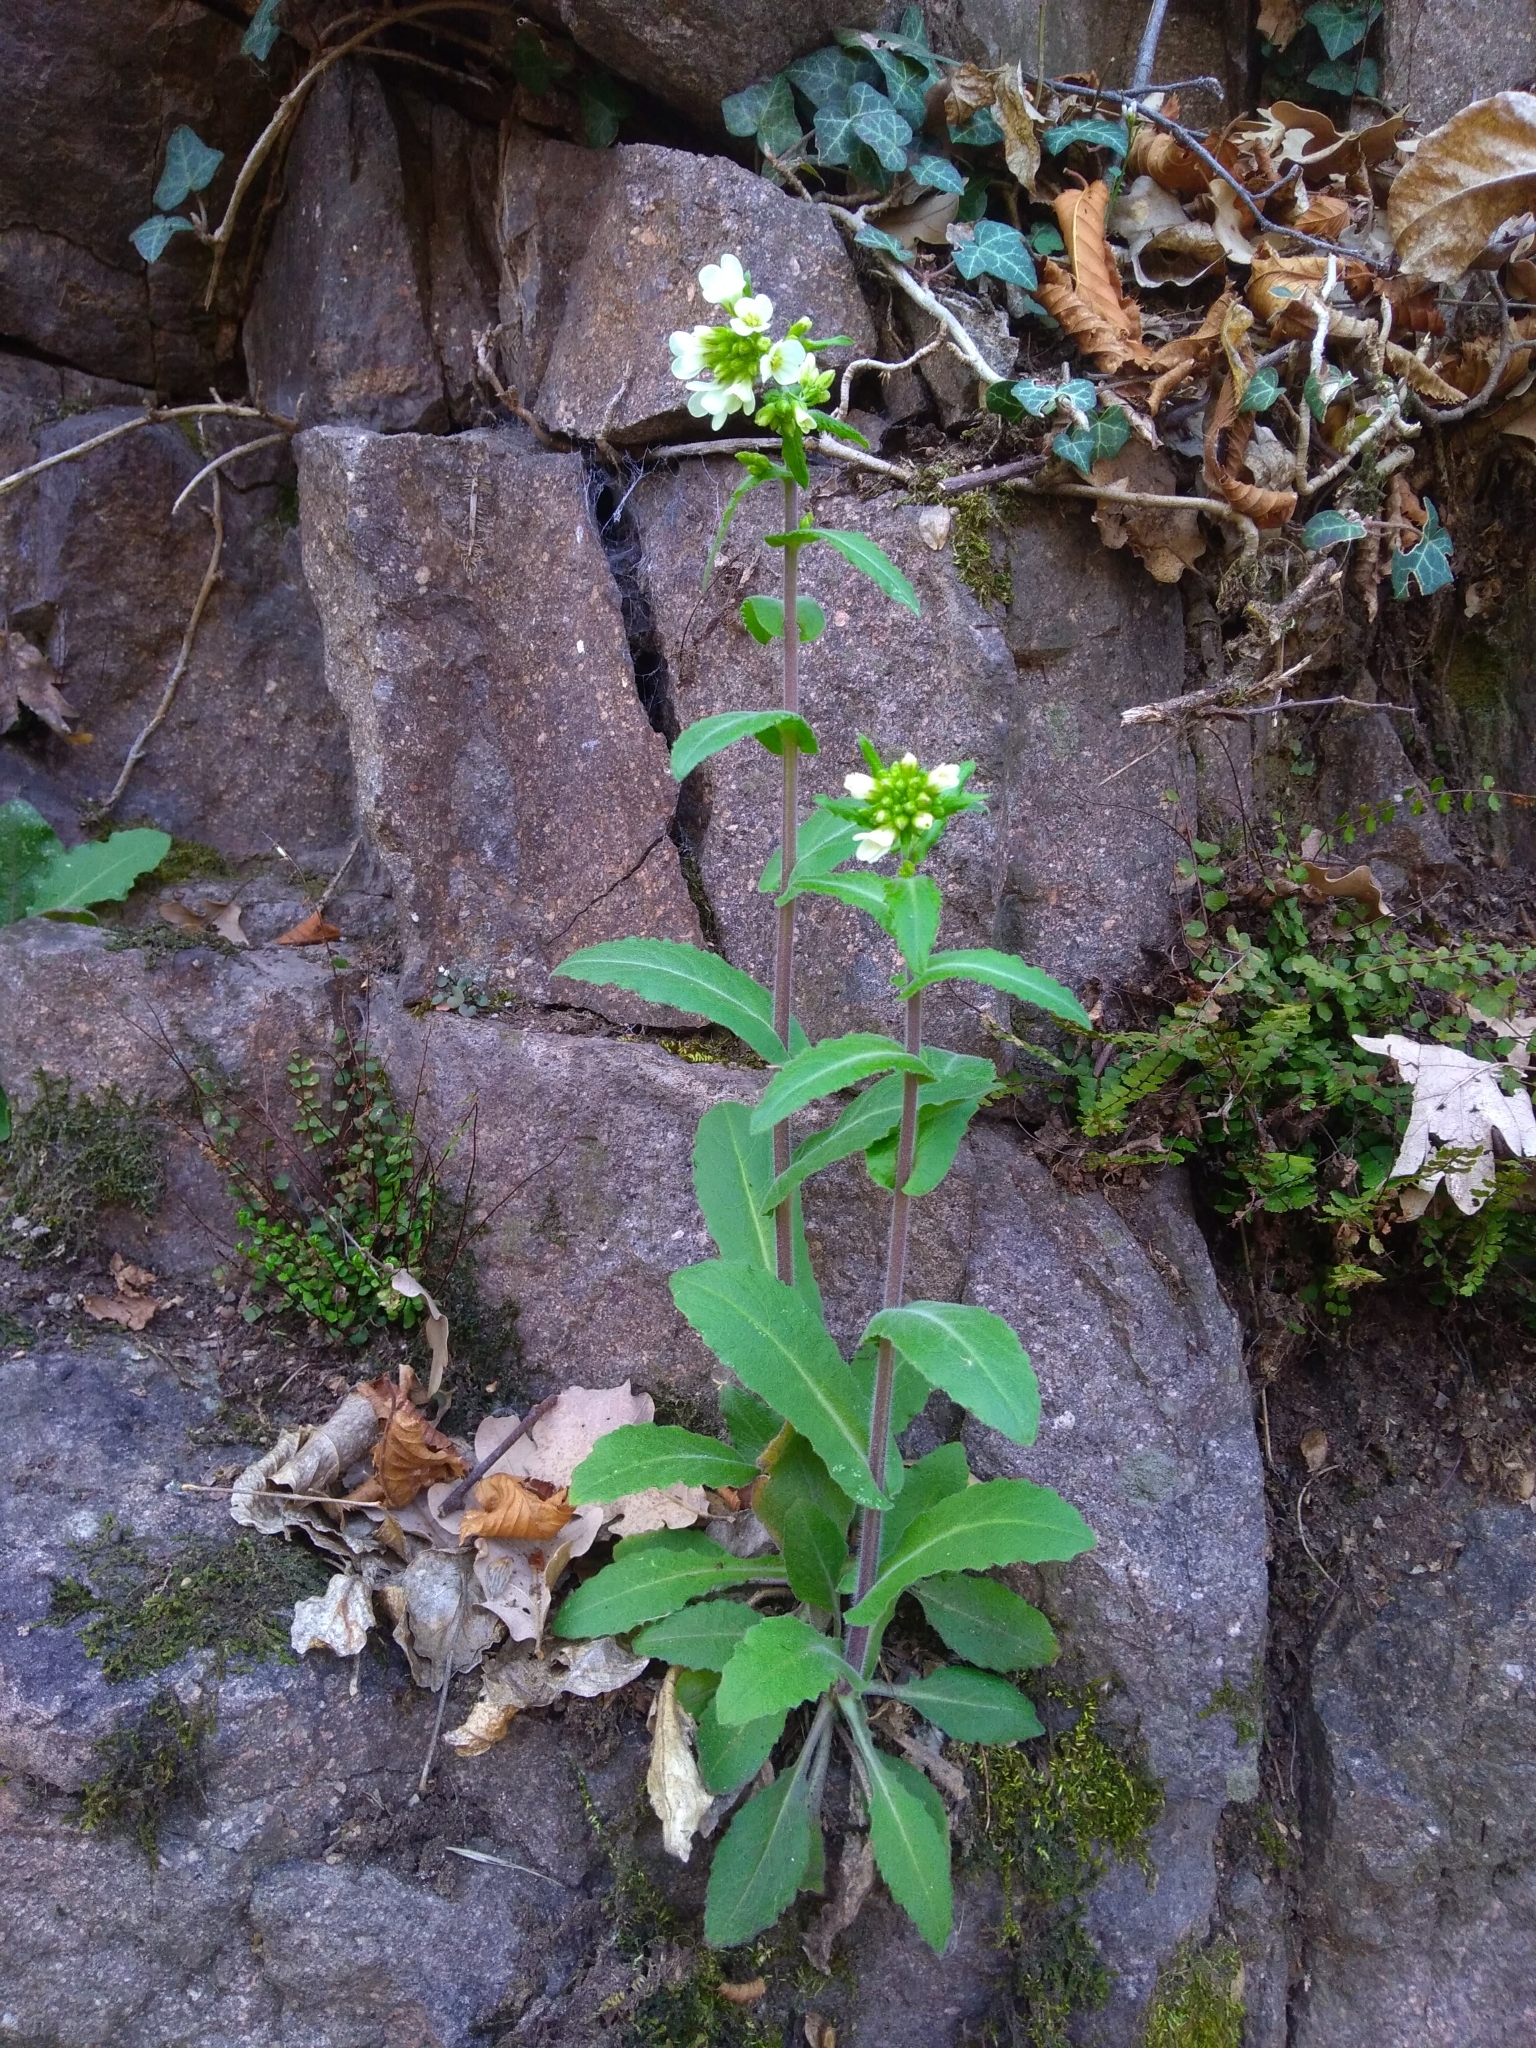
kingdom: Plantae
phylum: Tracheophyta
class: Magnoliopsida
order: Brassicales
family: Brassicaceae
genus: Pseudoturritis
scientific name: Pseudoturritis turrita
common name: Tower cress
